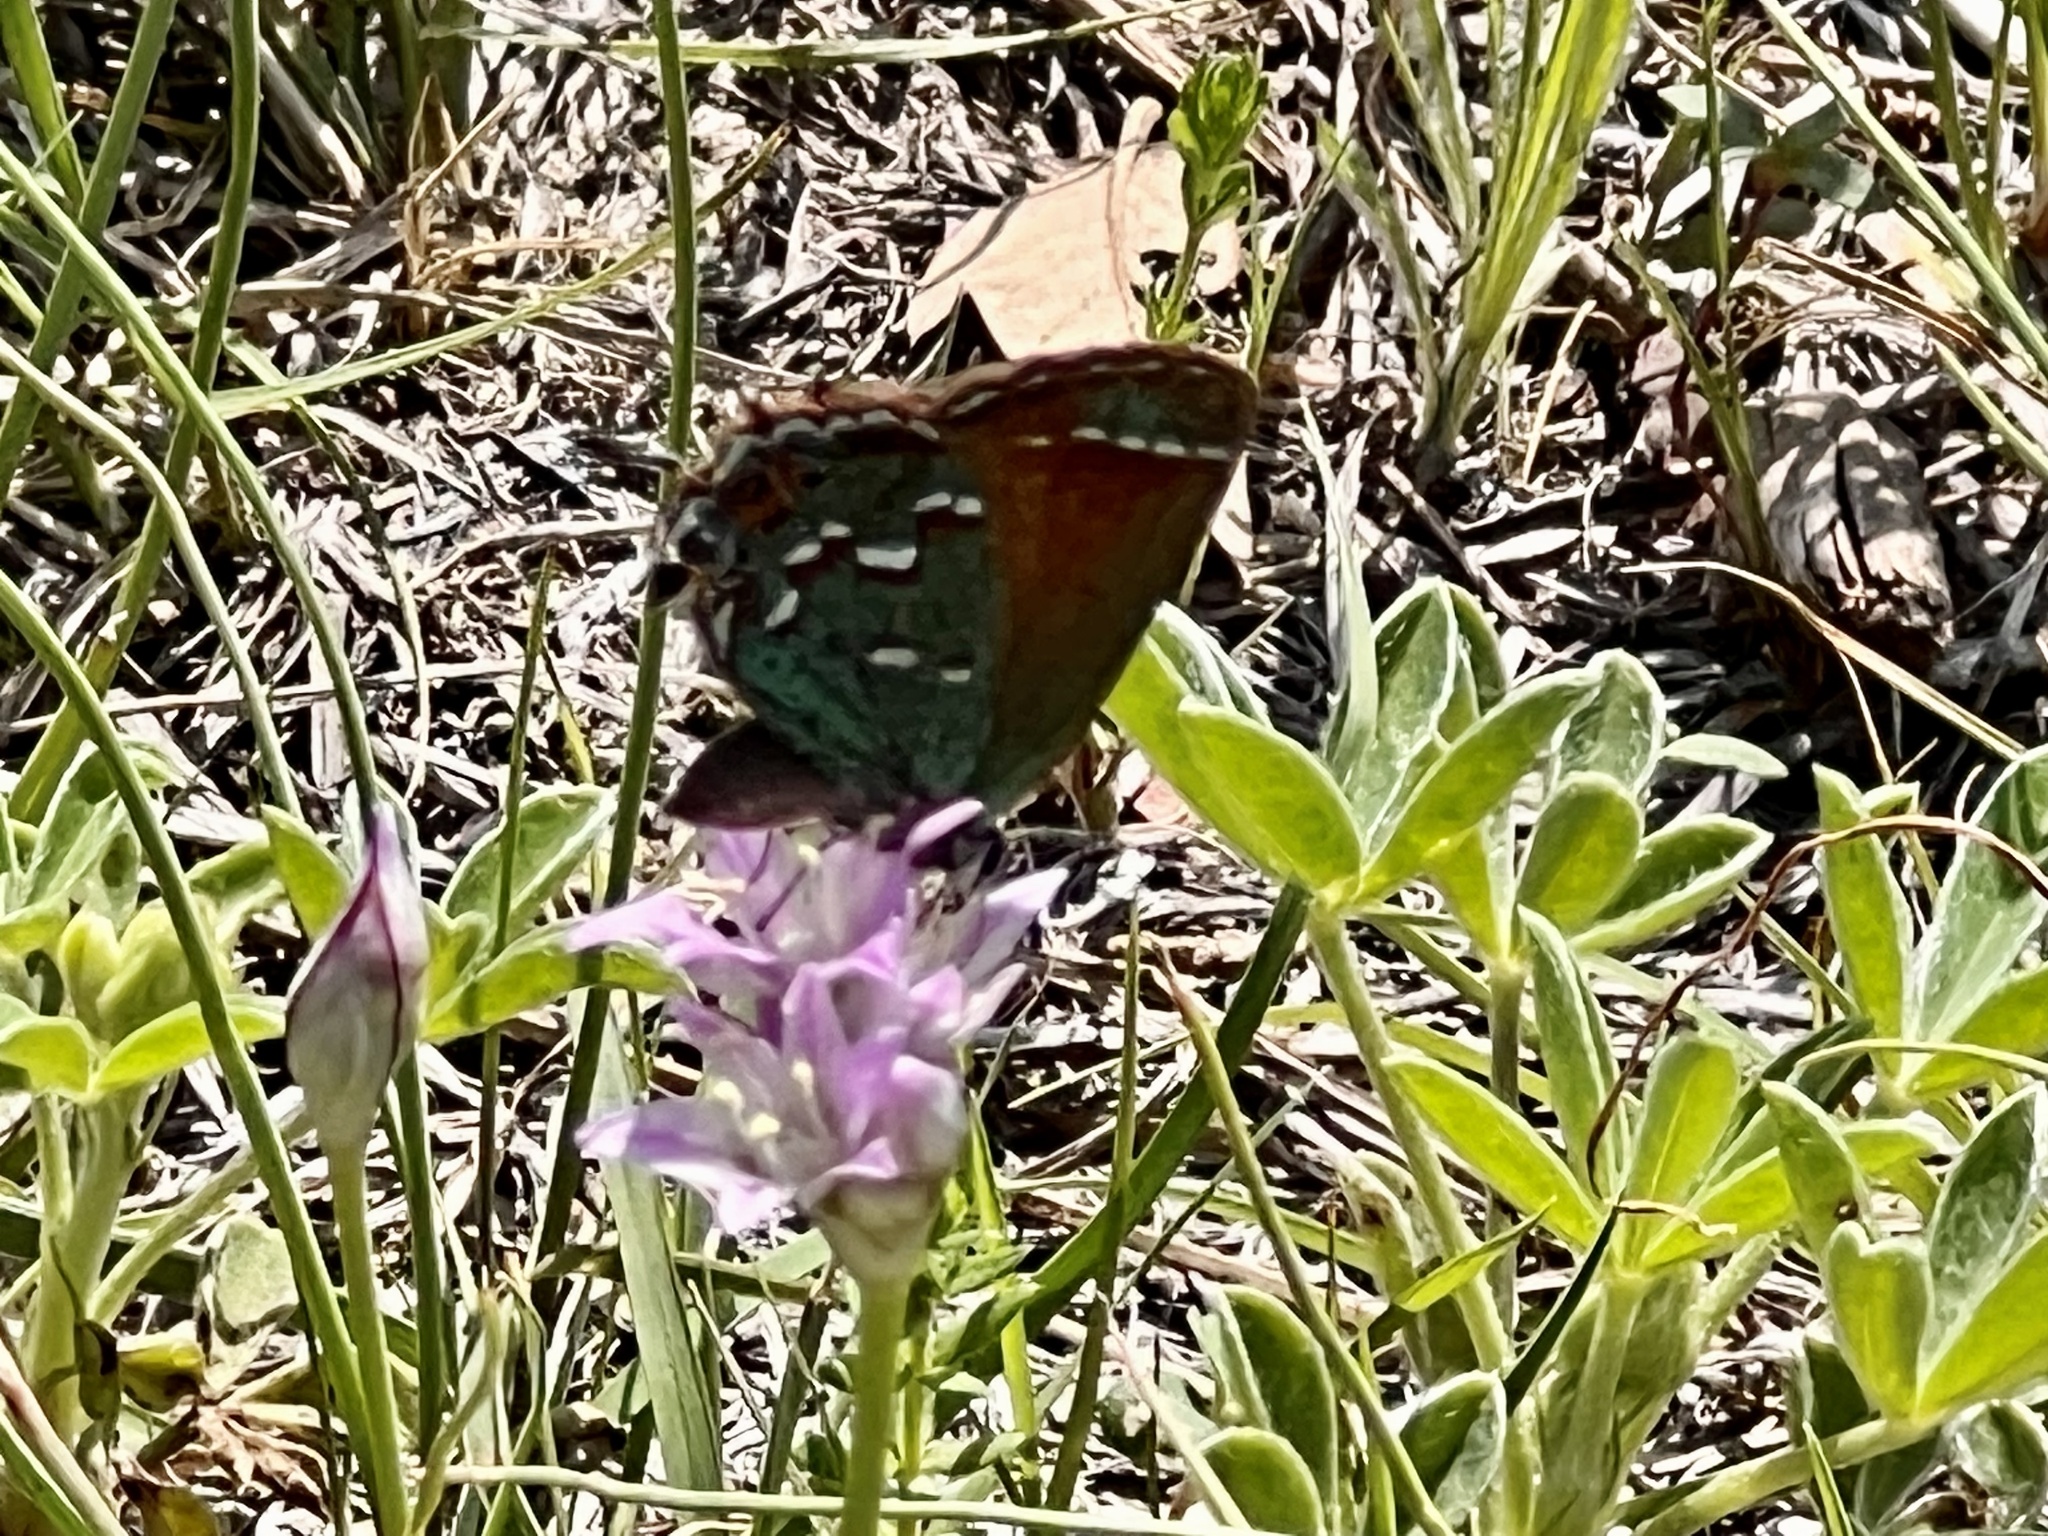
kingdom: Animalia
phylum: Arthropoda
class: Insecta
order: Lepidoptera
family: Lycaenidae
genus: Mitoura
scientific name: Mitoura gryneus
